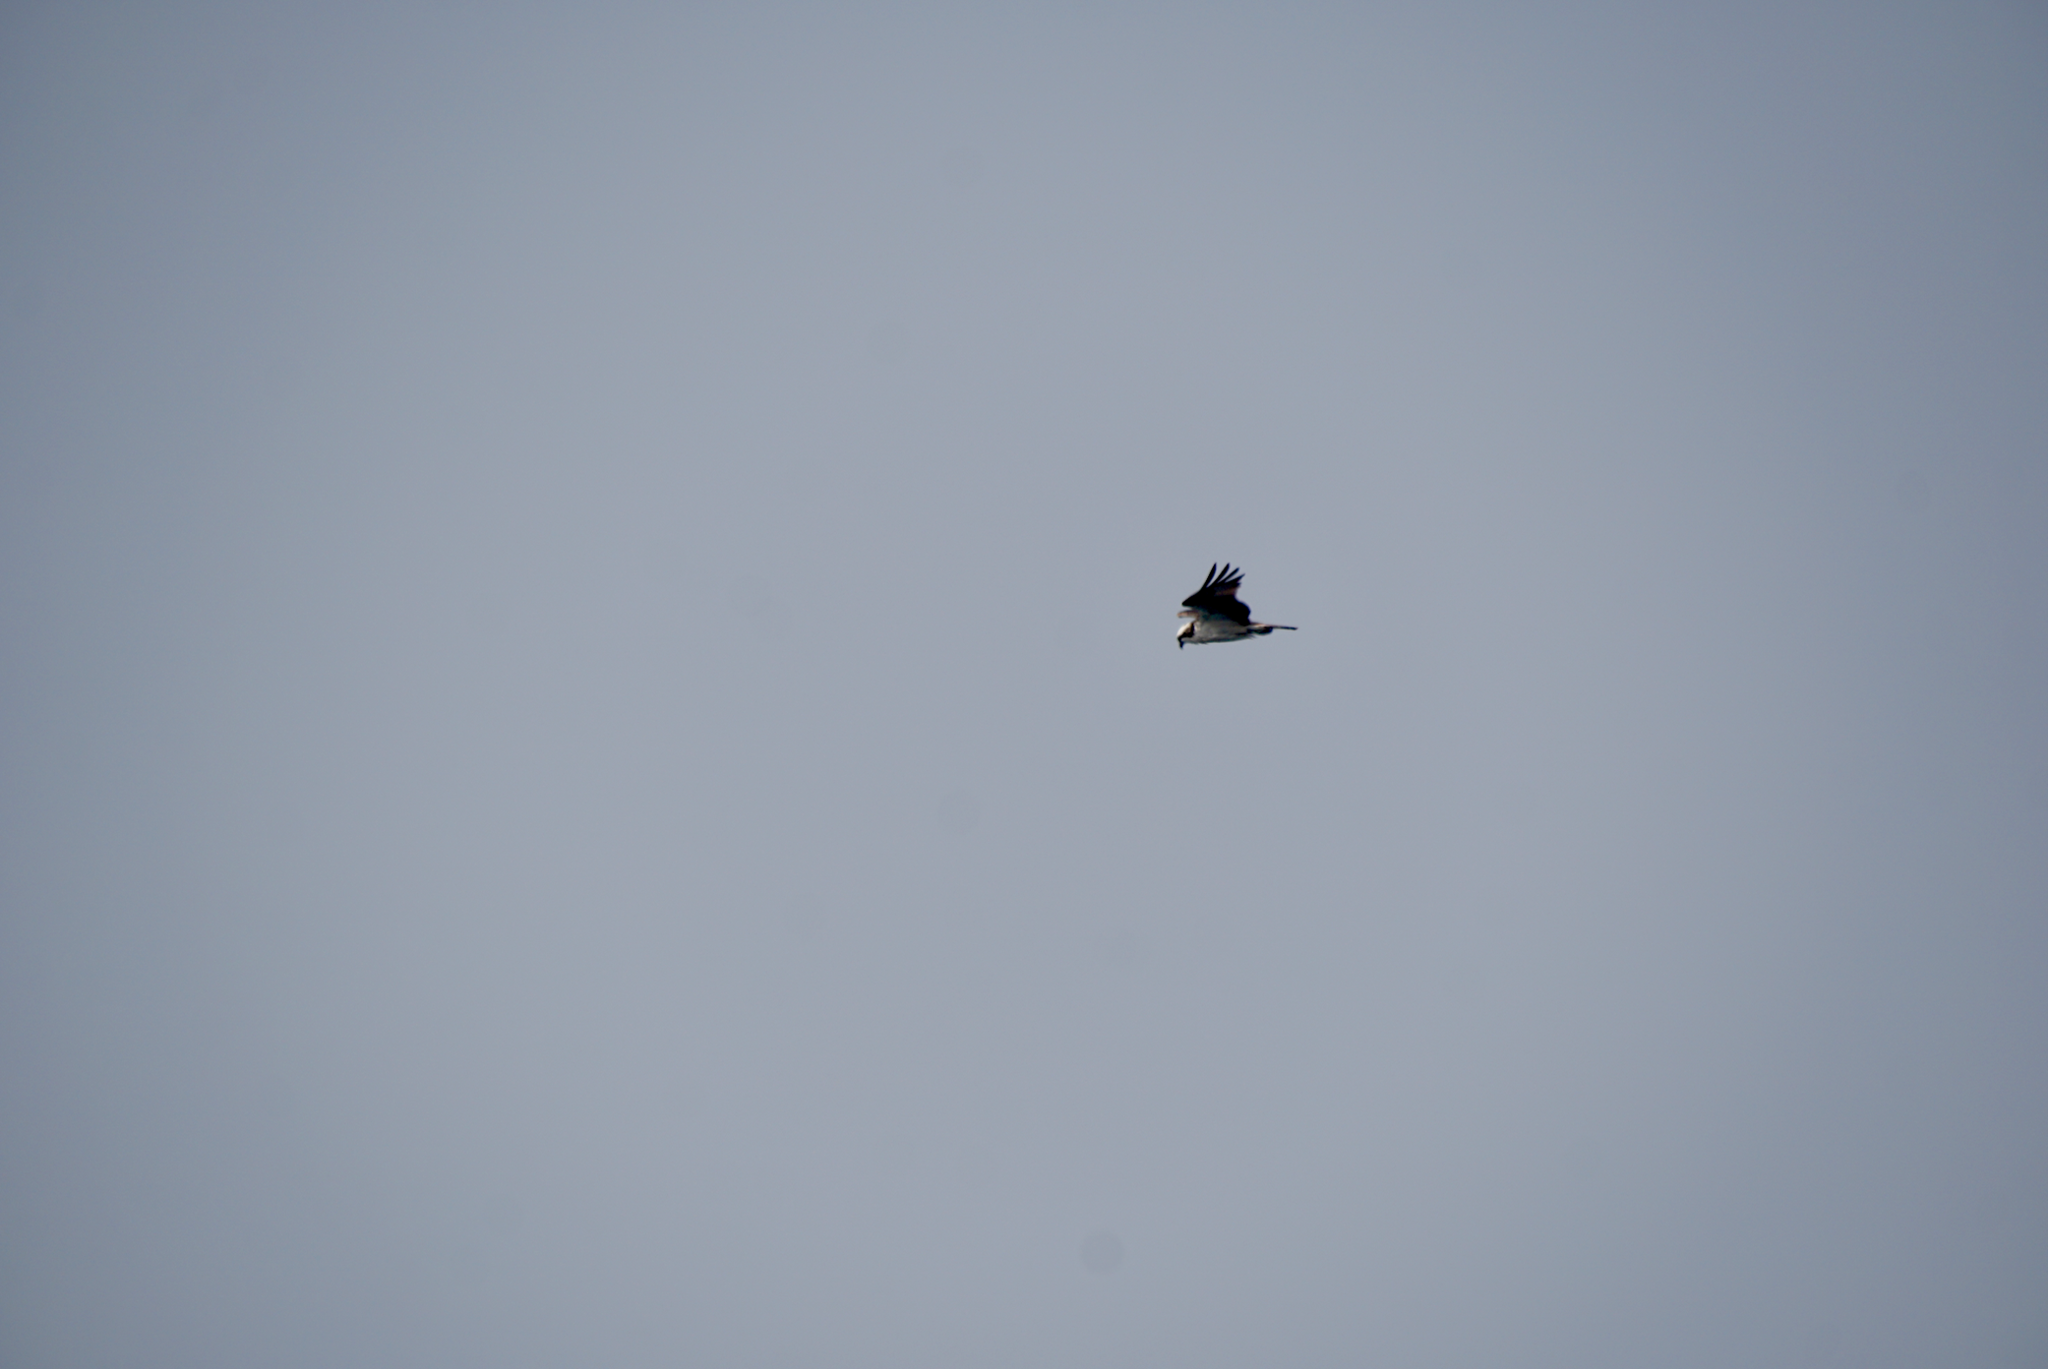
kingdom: Animalia
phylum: Chordata
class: Aves
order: Accipitriformes
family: Pandionidae
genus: Pandion
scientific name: Pandion haliaetus
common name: Osprey
